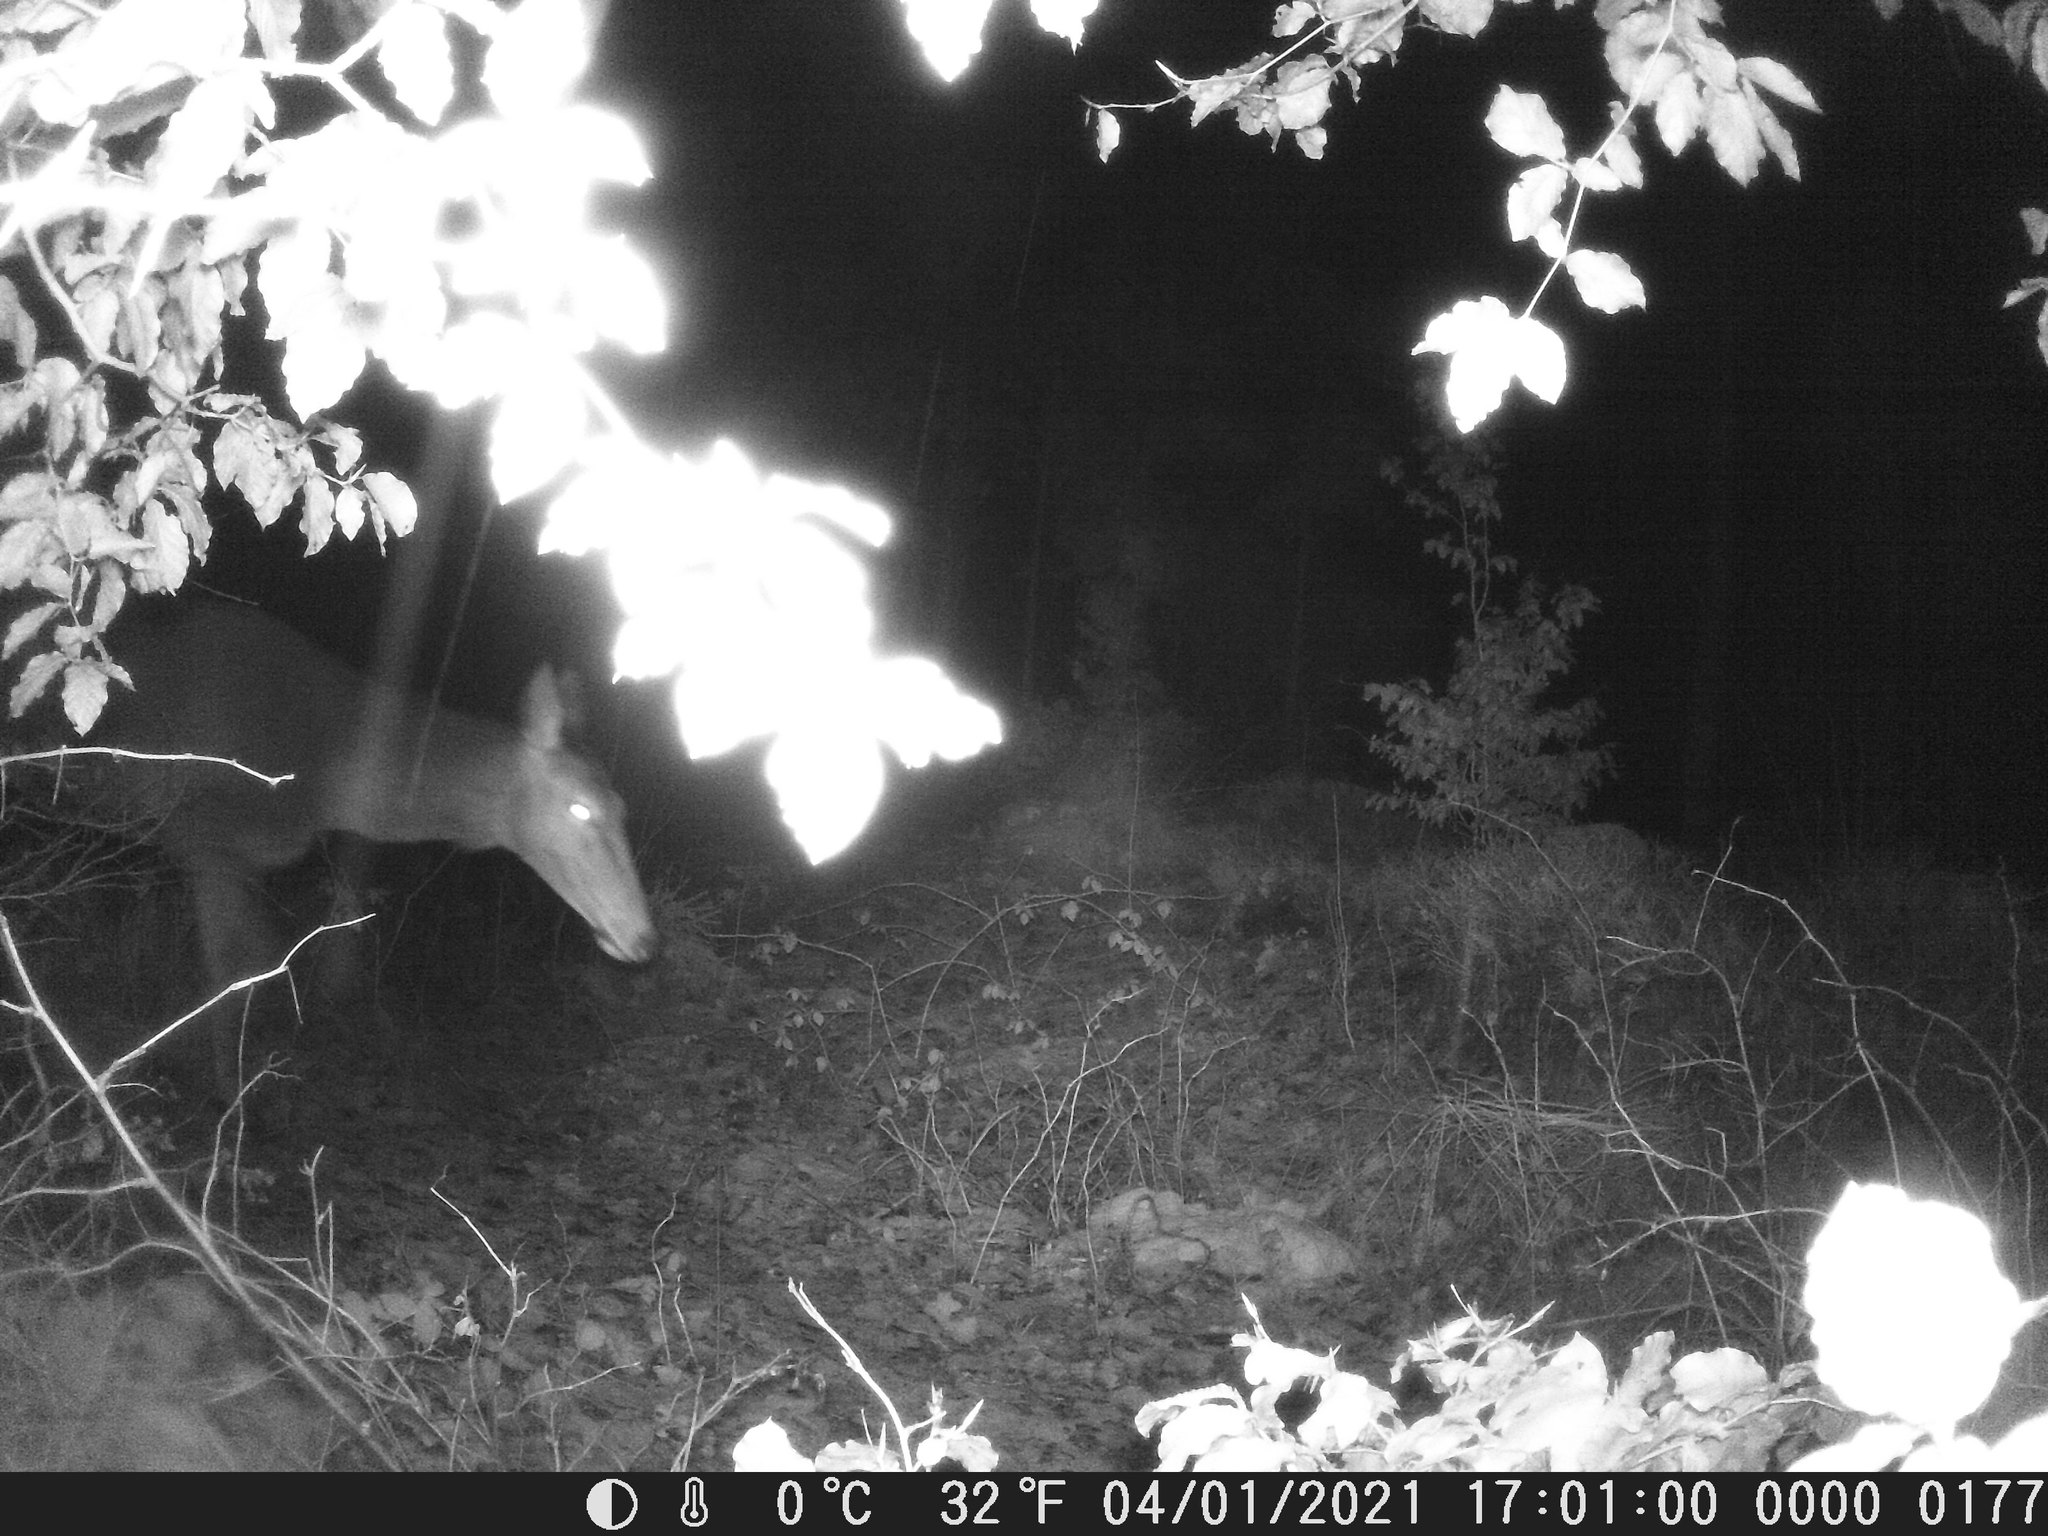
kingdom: Animalia
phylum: Chordata
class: Mammalia
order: Artiodactyla
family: Cervidae
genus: Cervus
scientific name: Cervus elaphus
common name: Red deer
